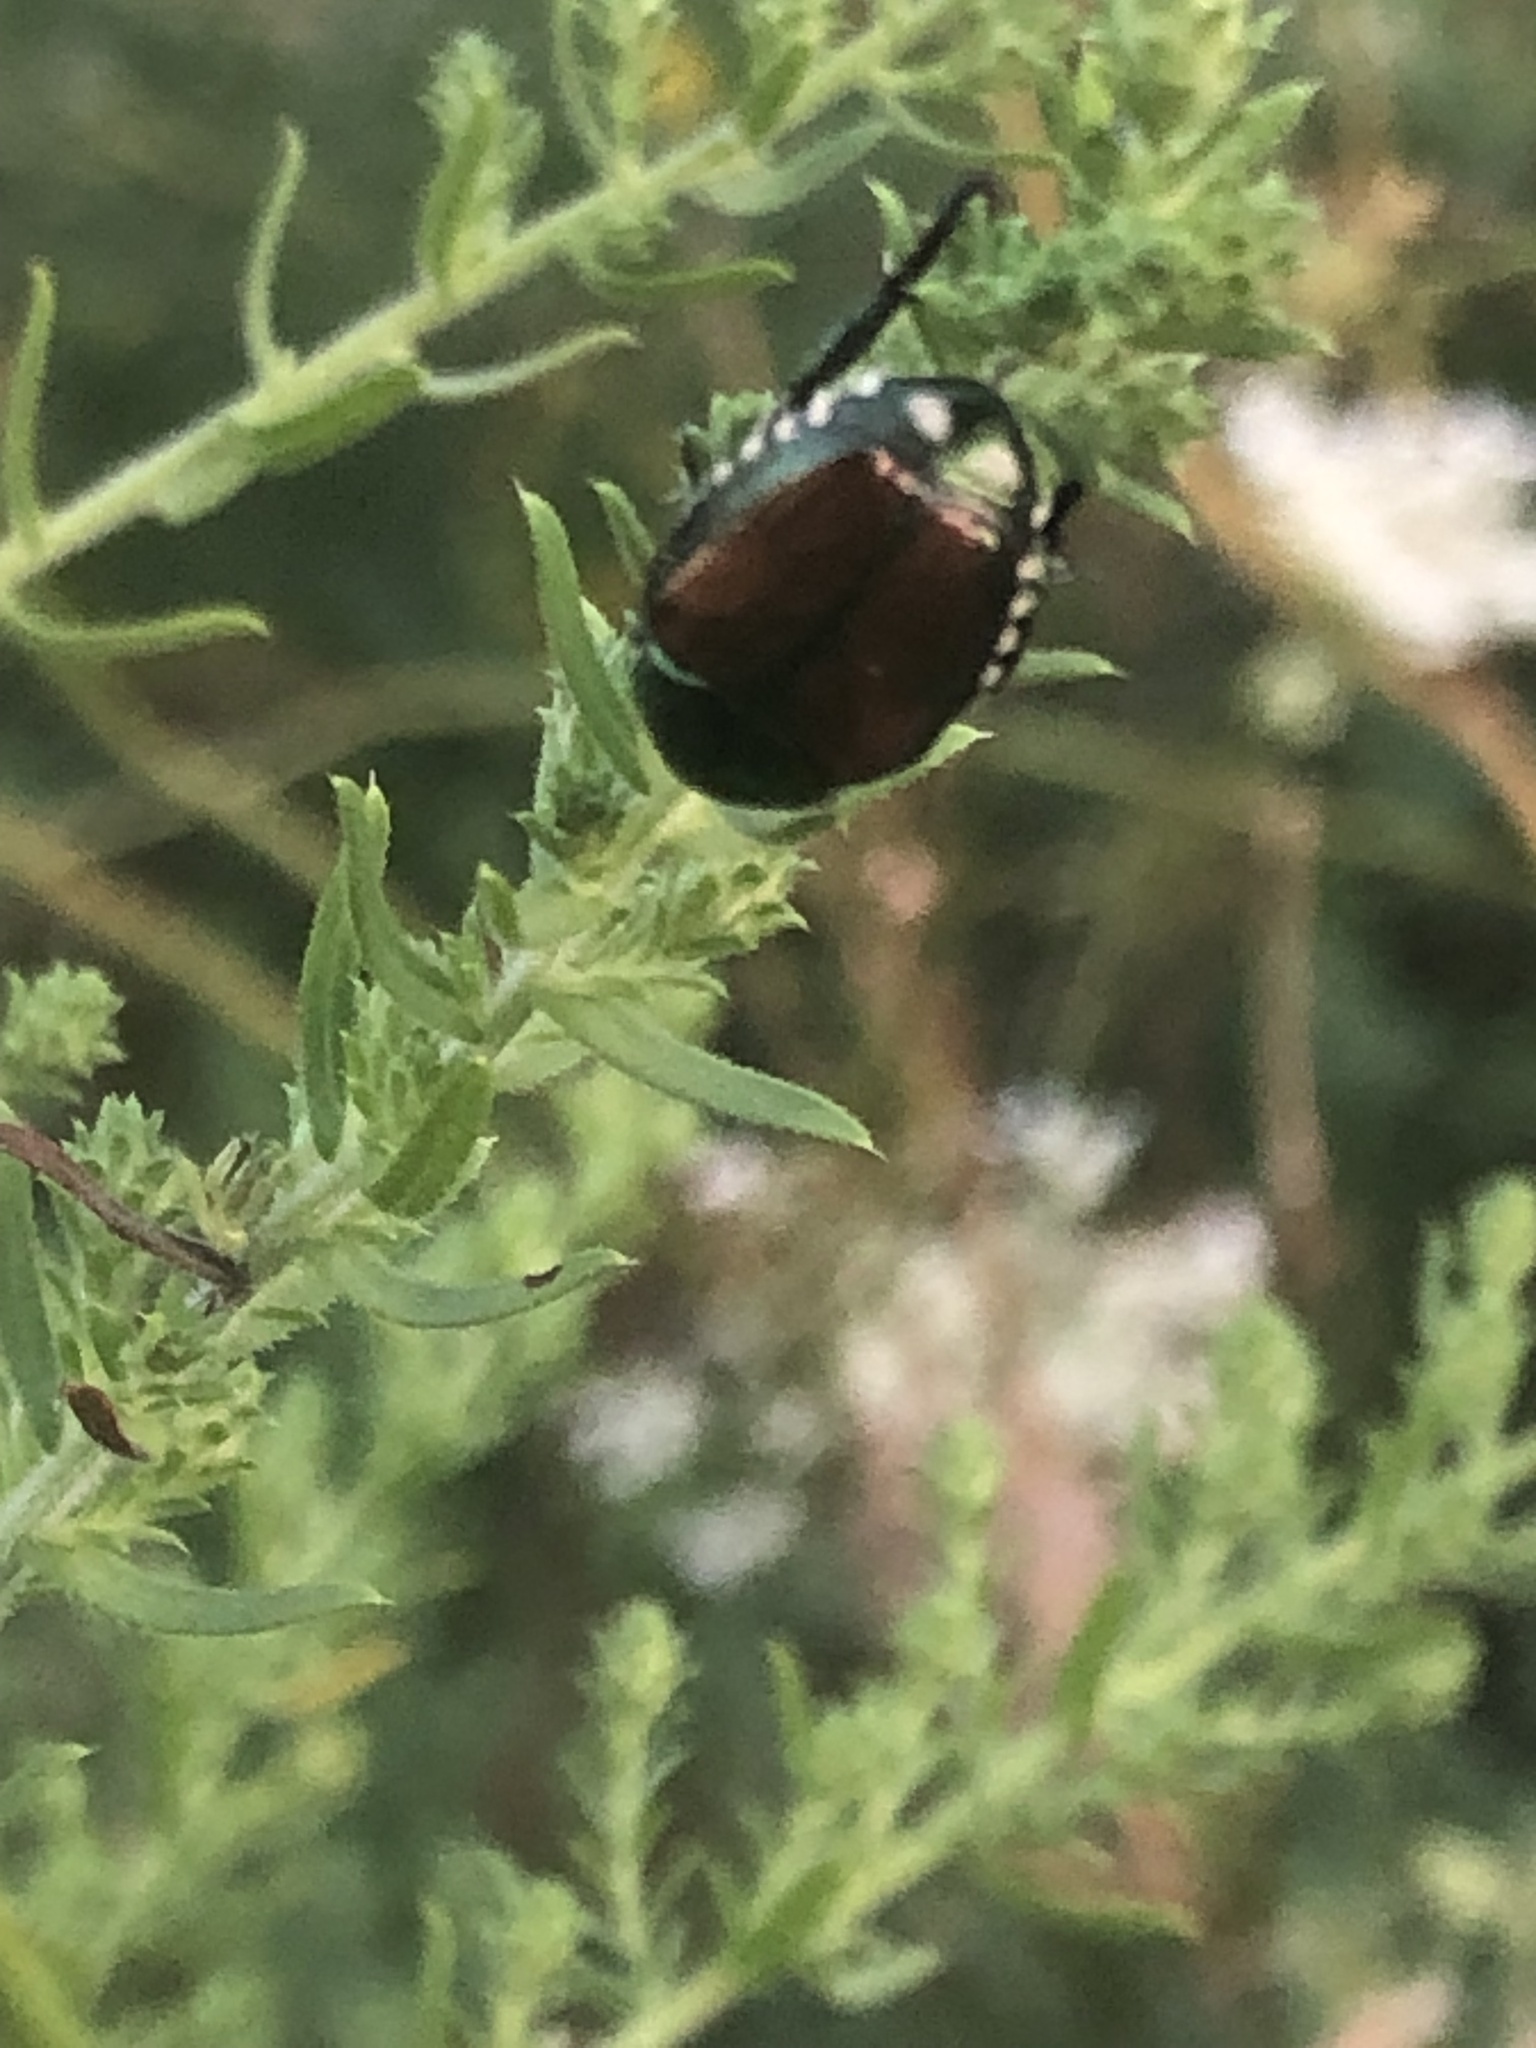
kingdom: Animalia
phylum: Arthropoda
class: Insecta
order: Coleoptera
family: Scarabaeidae
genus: Popillia
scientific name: Popillia japonica
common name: Japanese beetle
